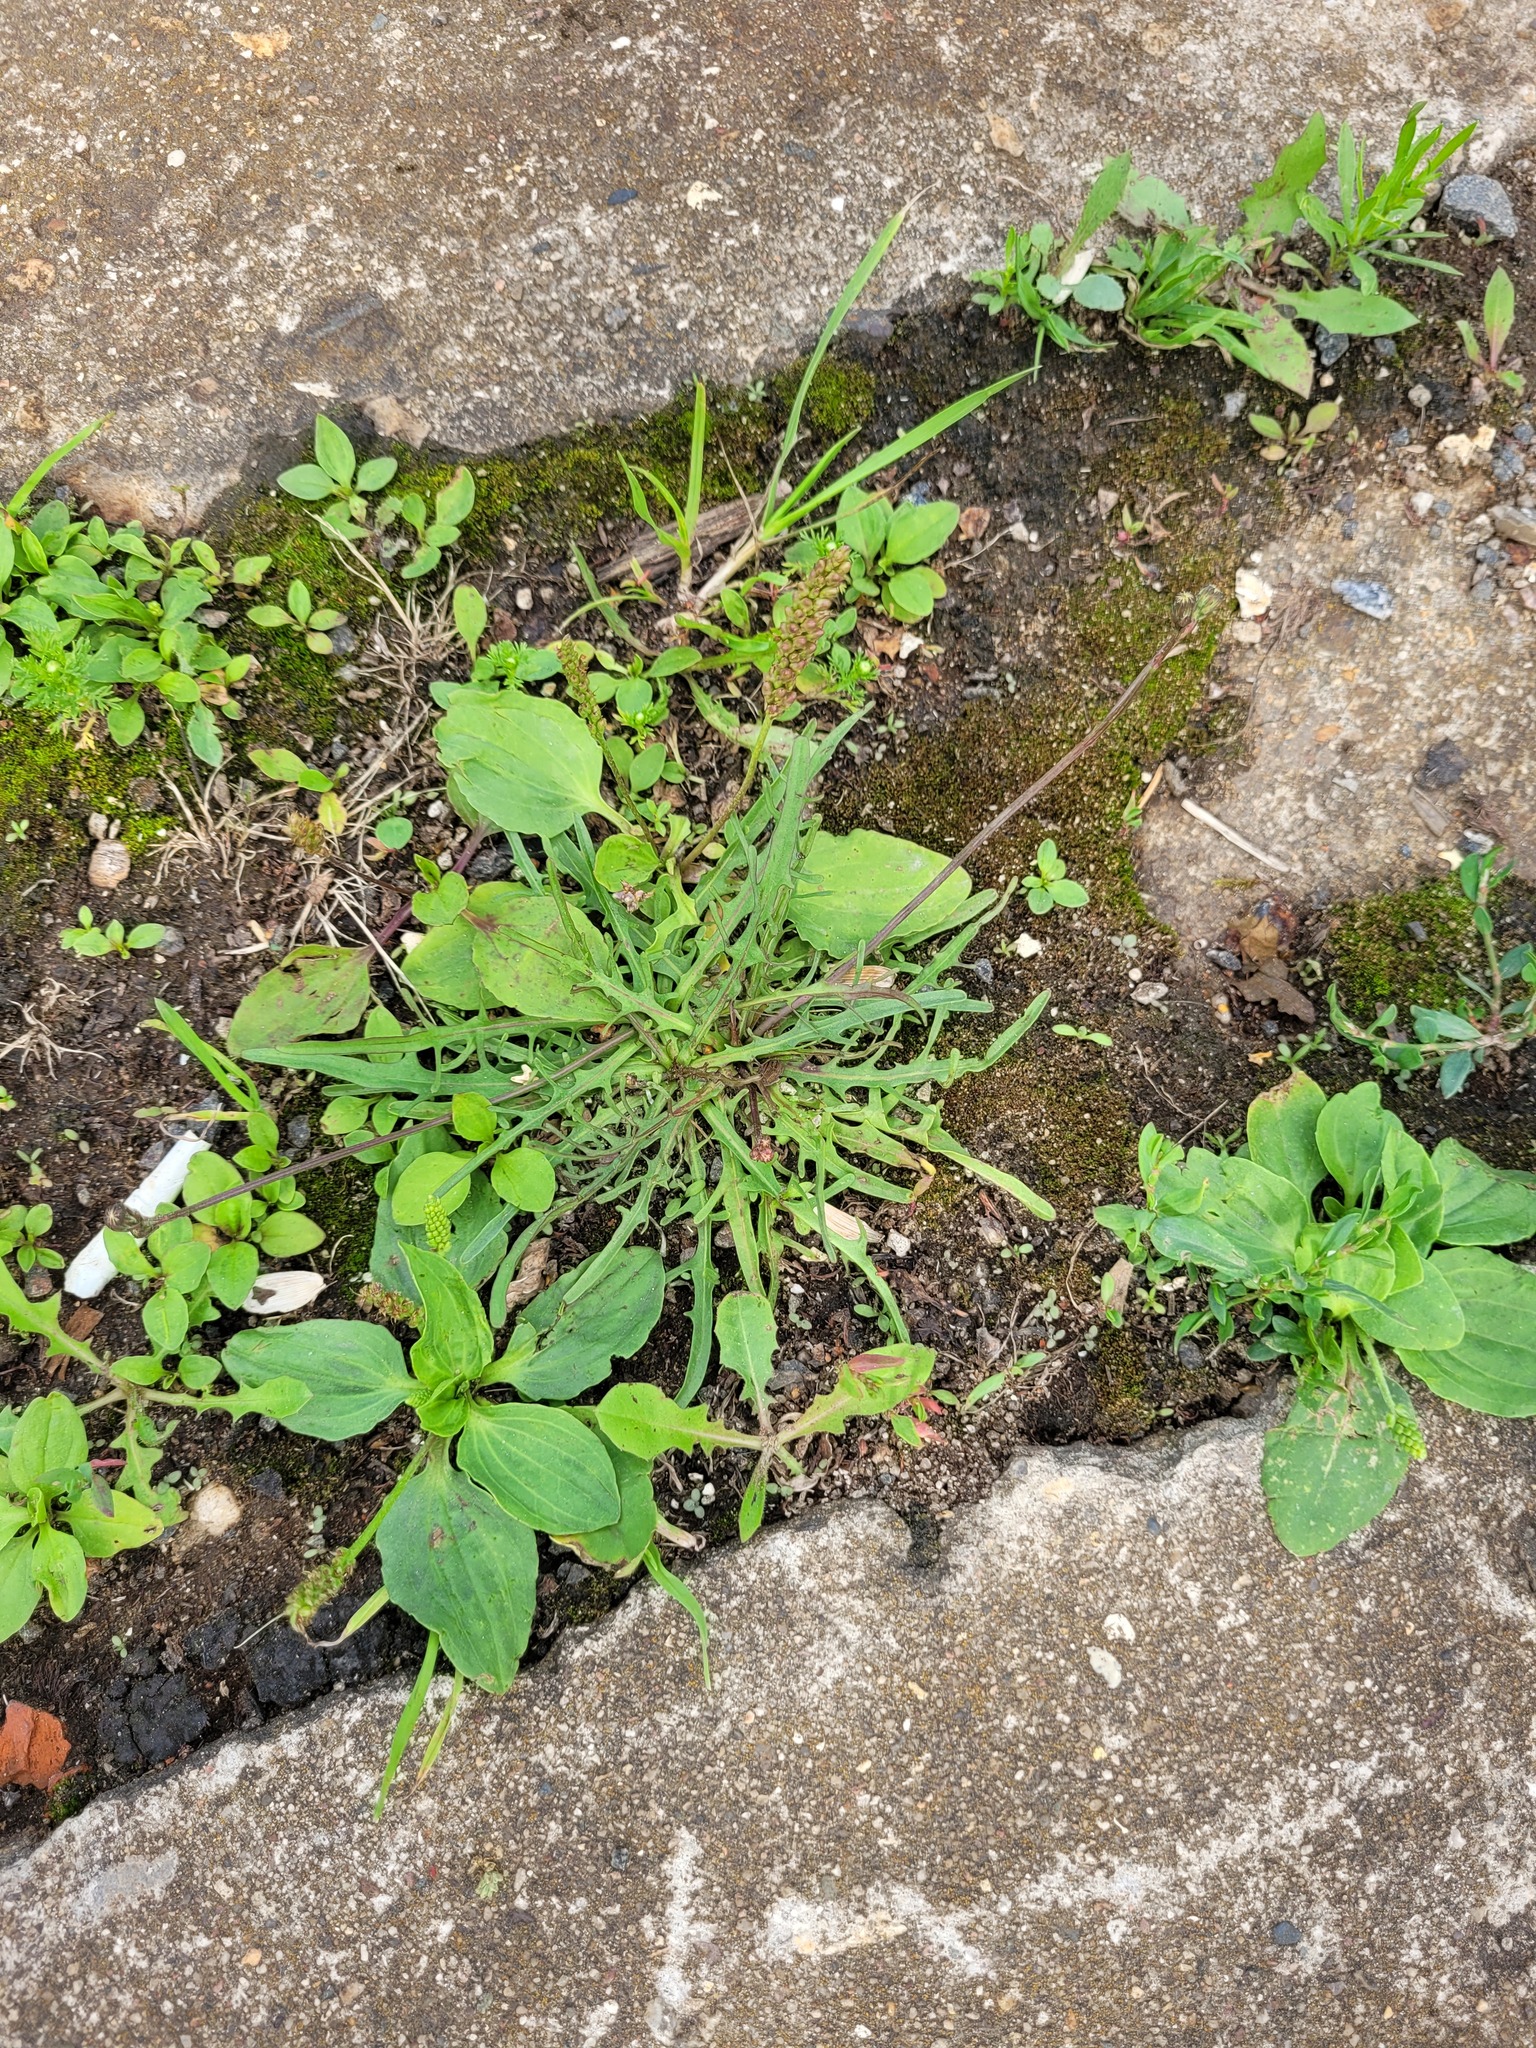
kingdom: Plantae
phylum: Tracheophyta
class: Magnoliopsida
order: Asterales
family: Asteraceae
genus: Scorzoneroides
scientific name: Scorzoneroides autumnalis
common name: Autumn hawkbit
